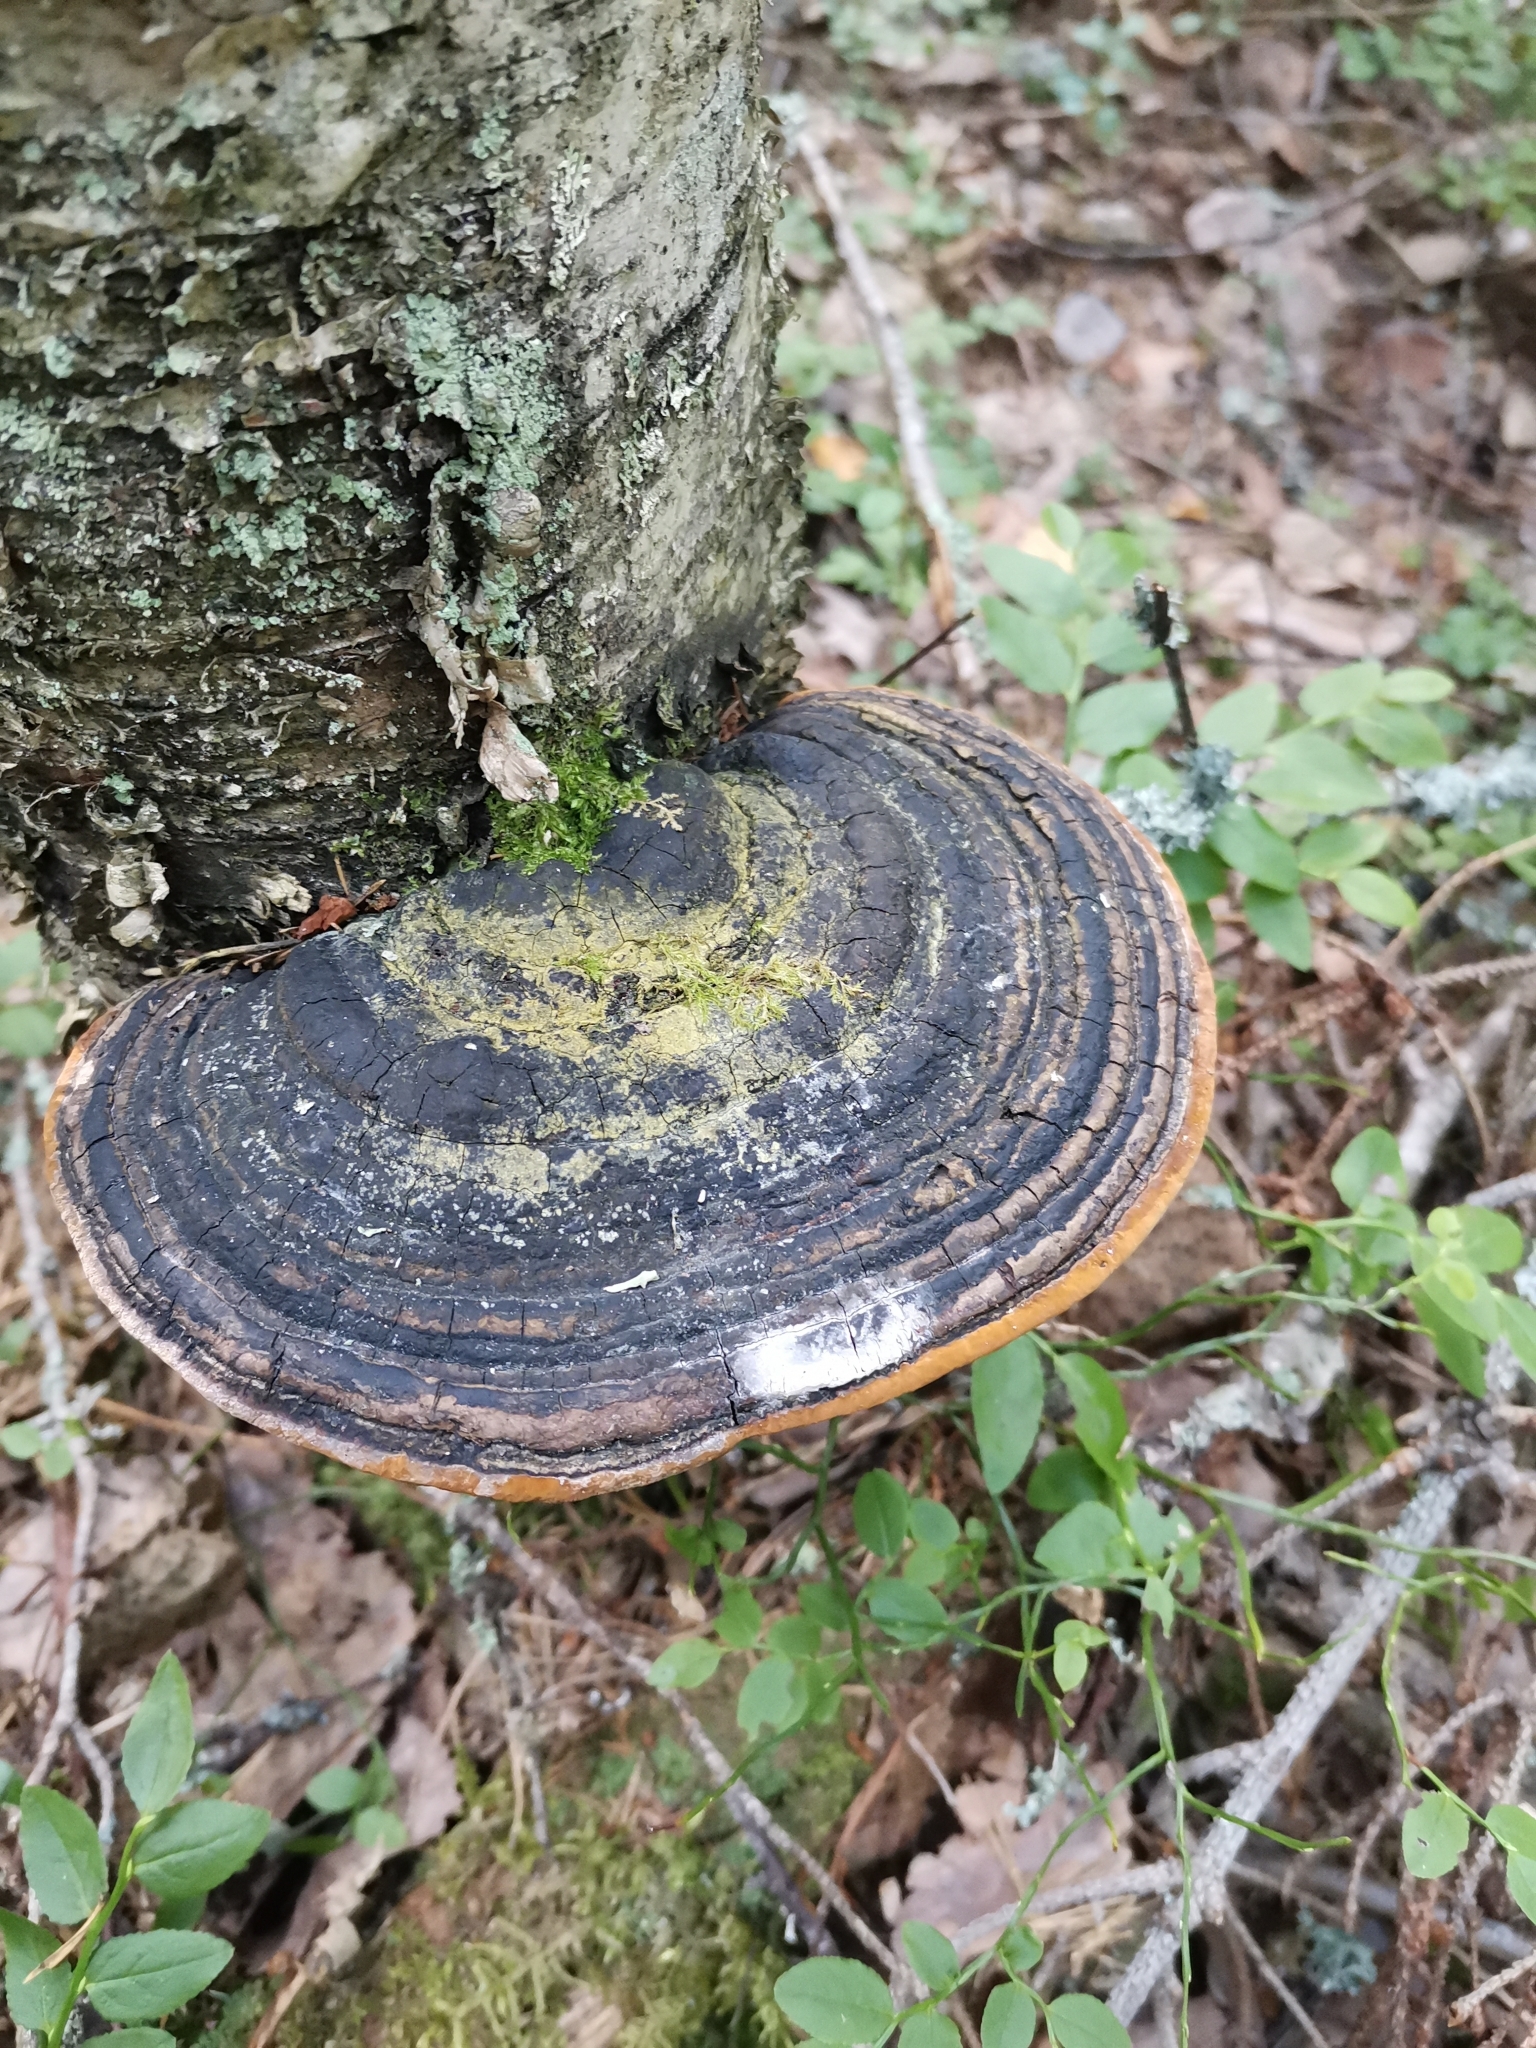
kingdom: Fungi
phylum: Basidiomycota
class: Agaricomycetes
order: Hymenochaetales
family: Hymenochaetaceae
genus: Phellinus
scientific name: Phellinus igniarius
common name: Willow bracket
